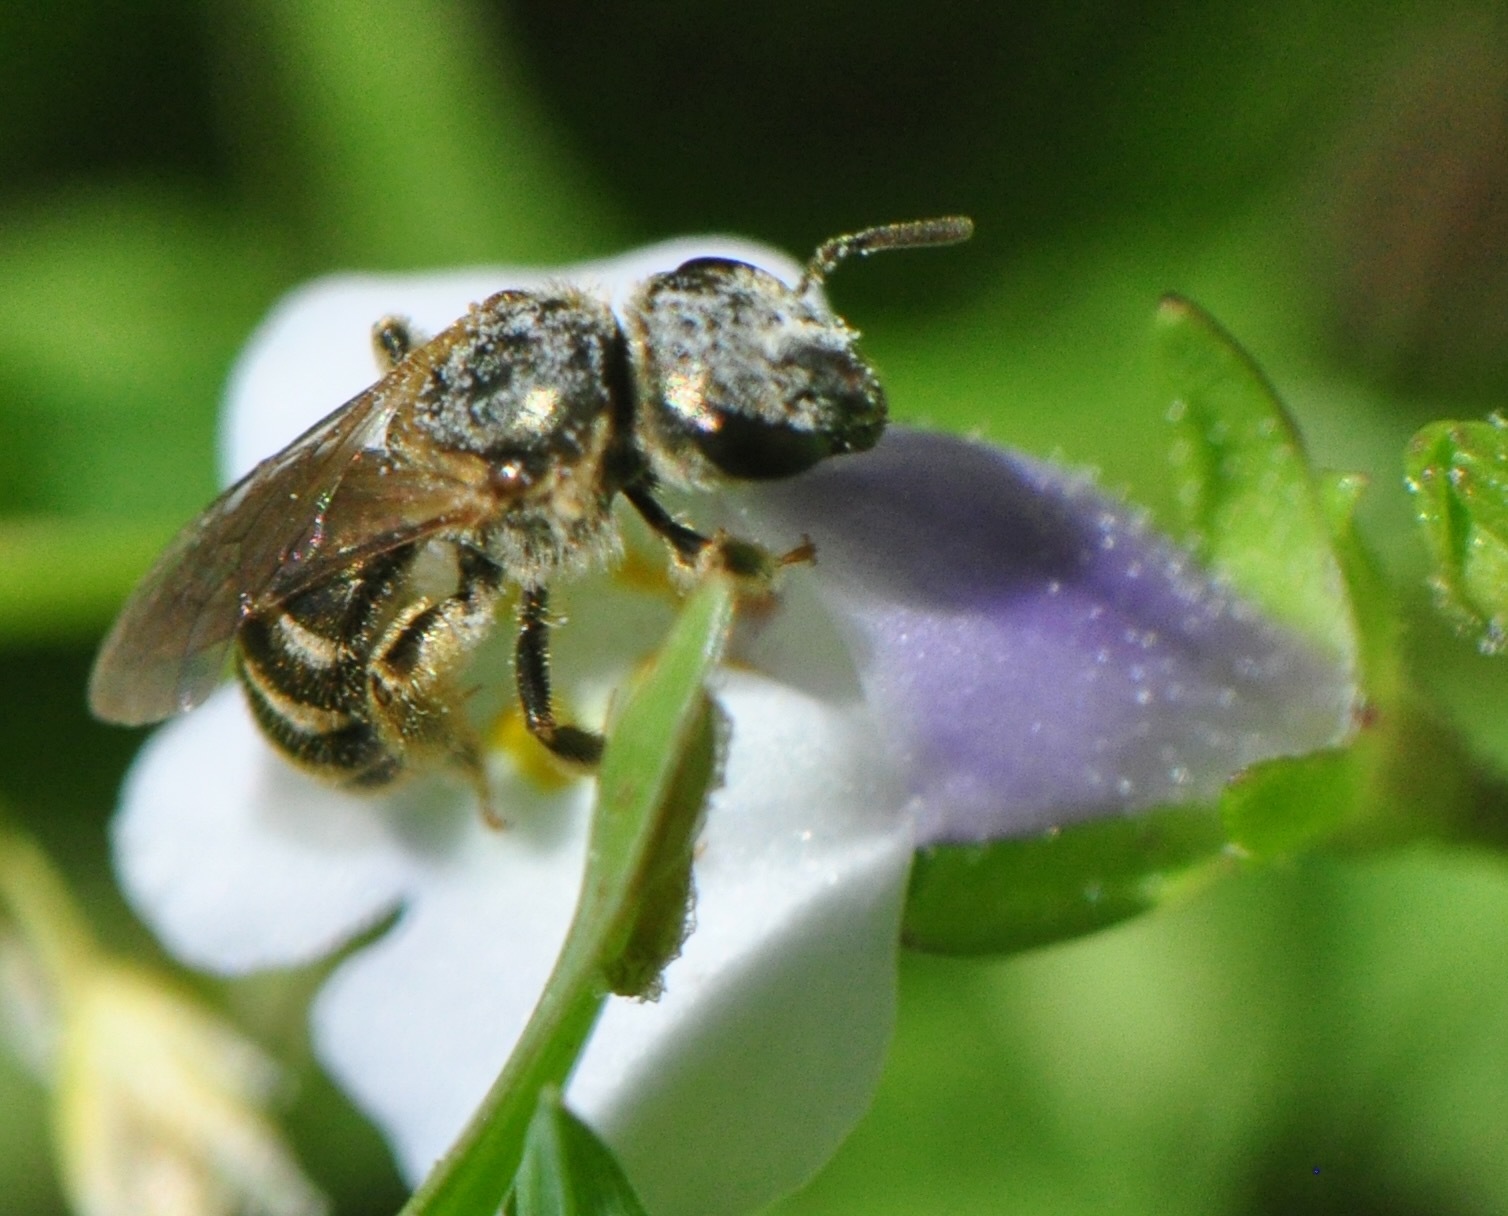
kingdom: Animalia
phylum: Arthropoda
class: Insecta
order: Hymenoptera
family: Halictidae
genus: Halictus
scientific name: Halictus confusus
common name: Southern bronze furrow bee
